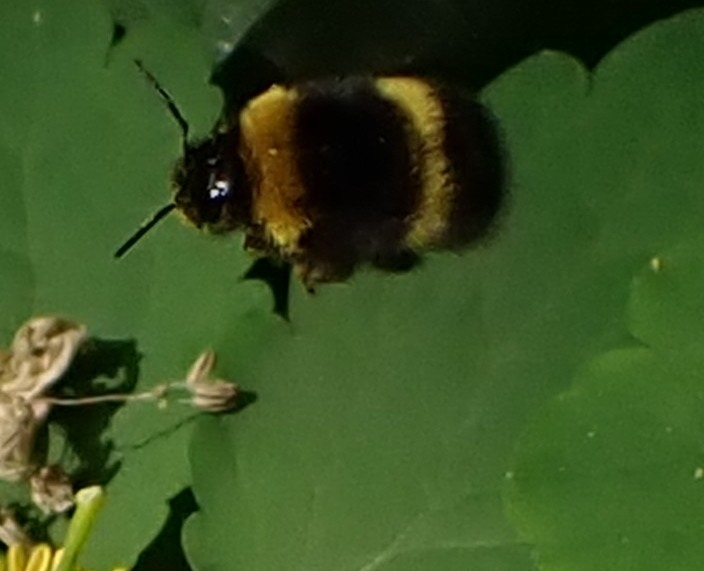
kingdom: Animalia
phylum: Arthropoda
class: Insecta
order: Hymenoptera
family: Apidae
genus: Bombus
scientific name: Bombus
